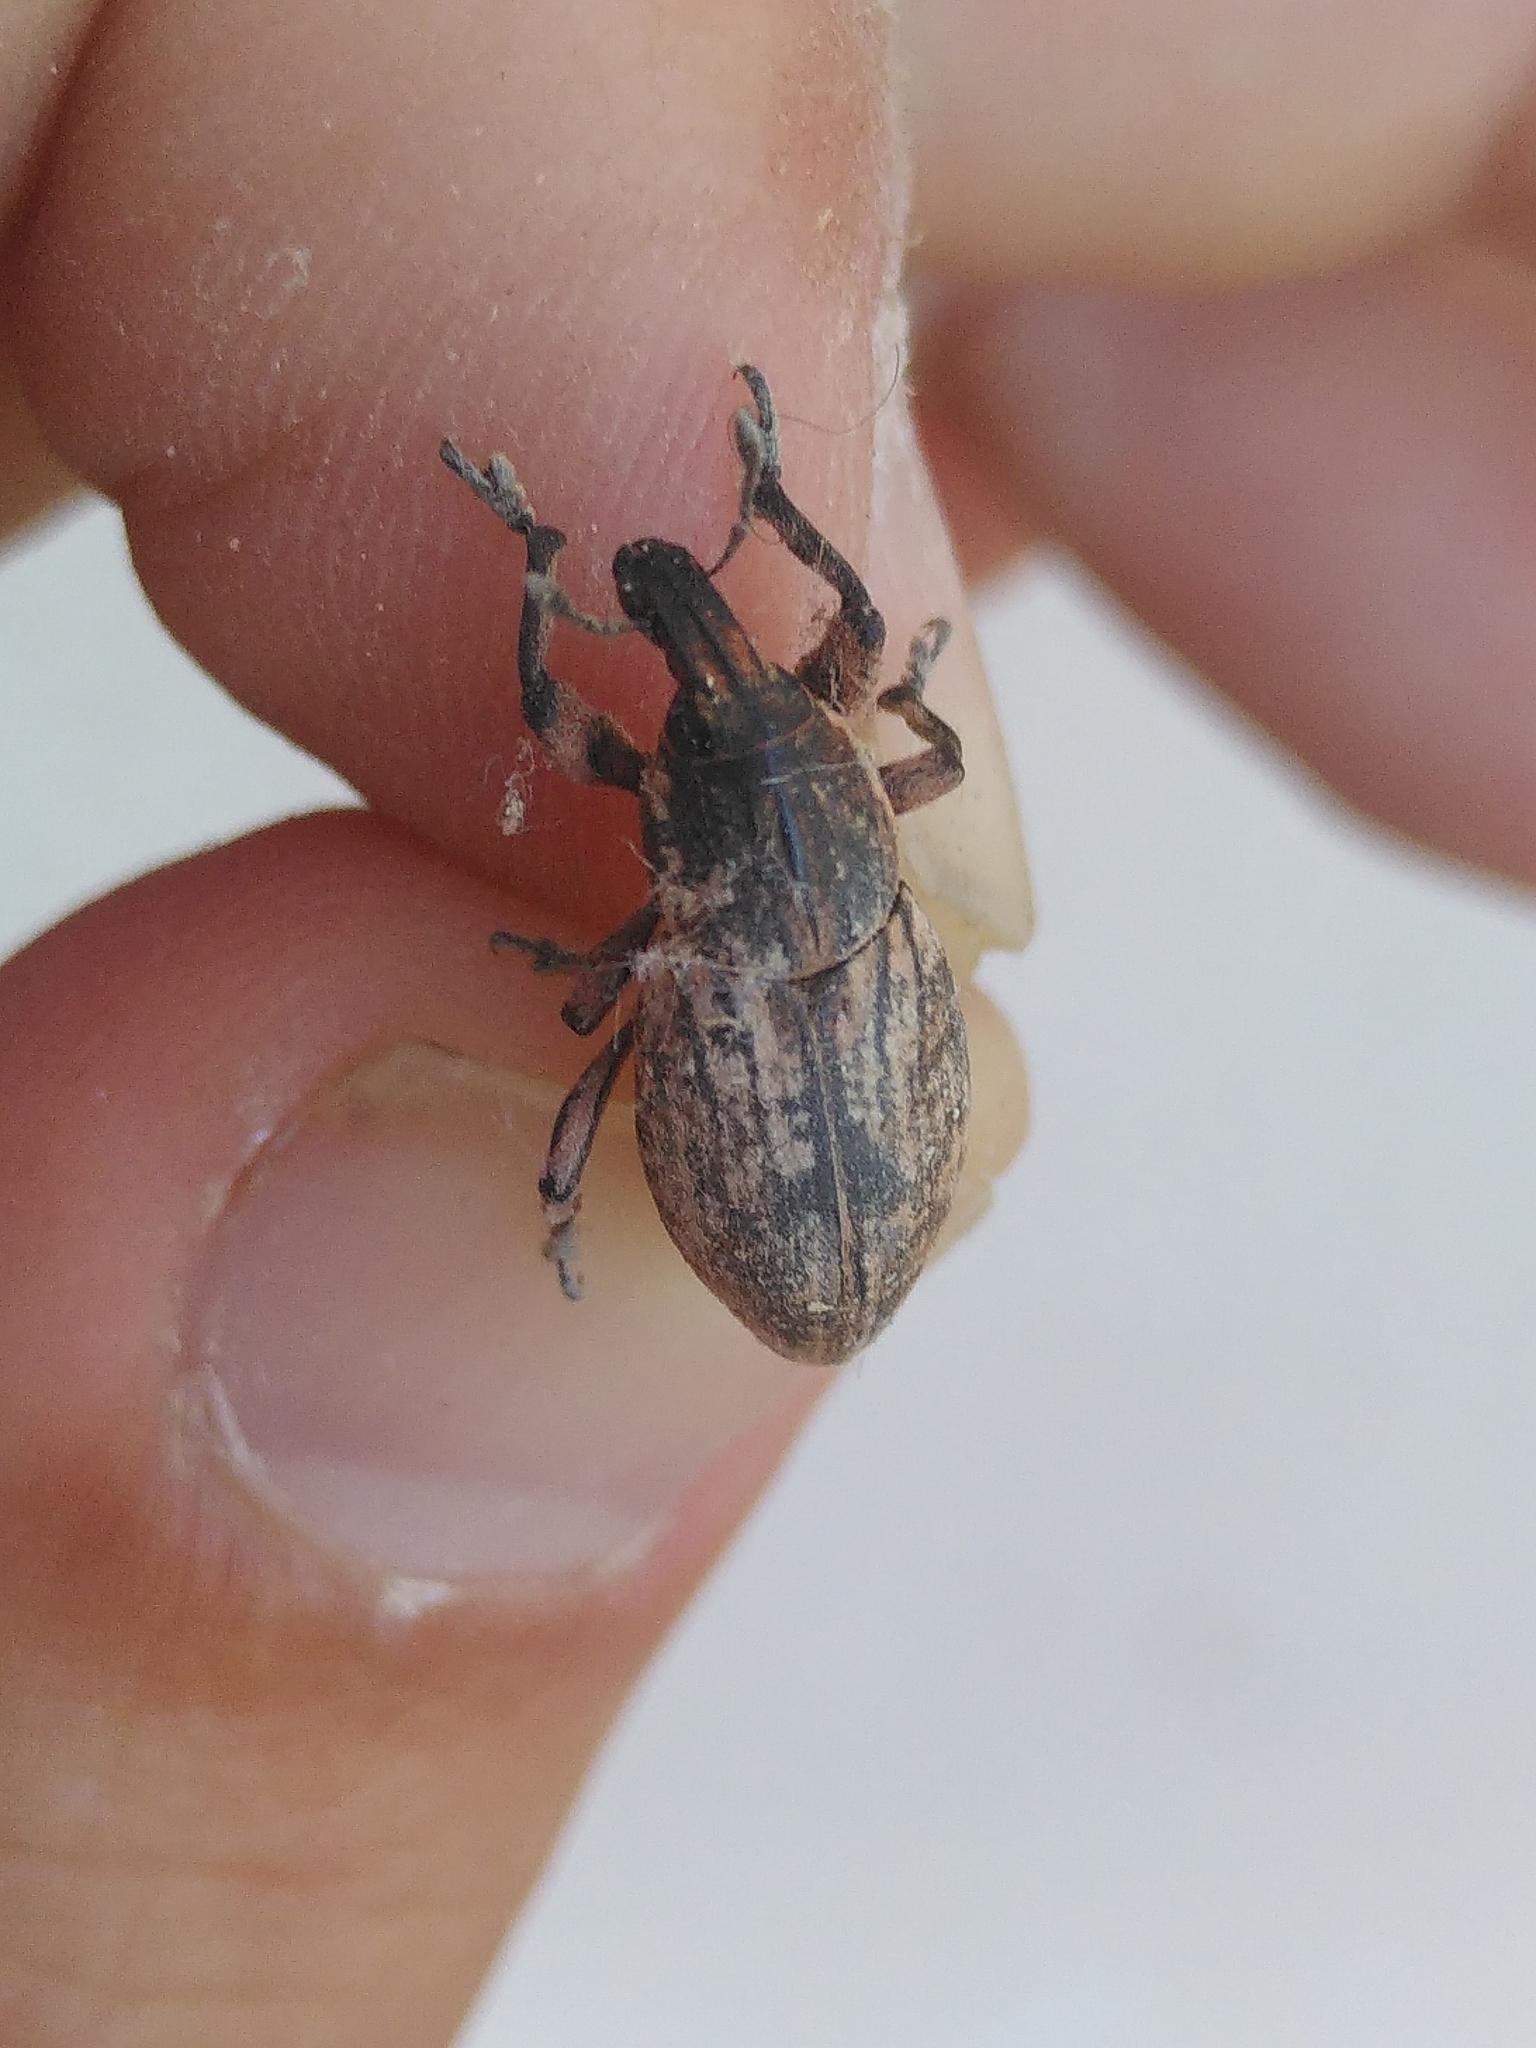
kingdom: Animalia
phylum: Arthropoda
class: Insecta
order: Coleoptera
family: Curculionidae
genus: Pseudocleonus
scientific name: Pseudocleonus cinereus
